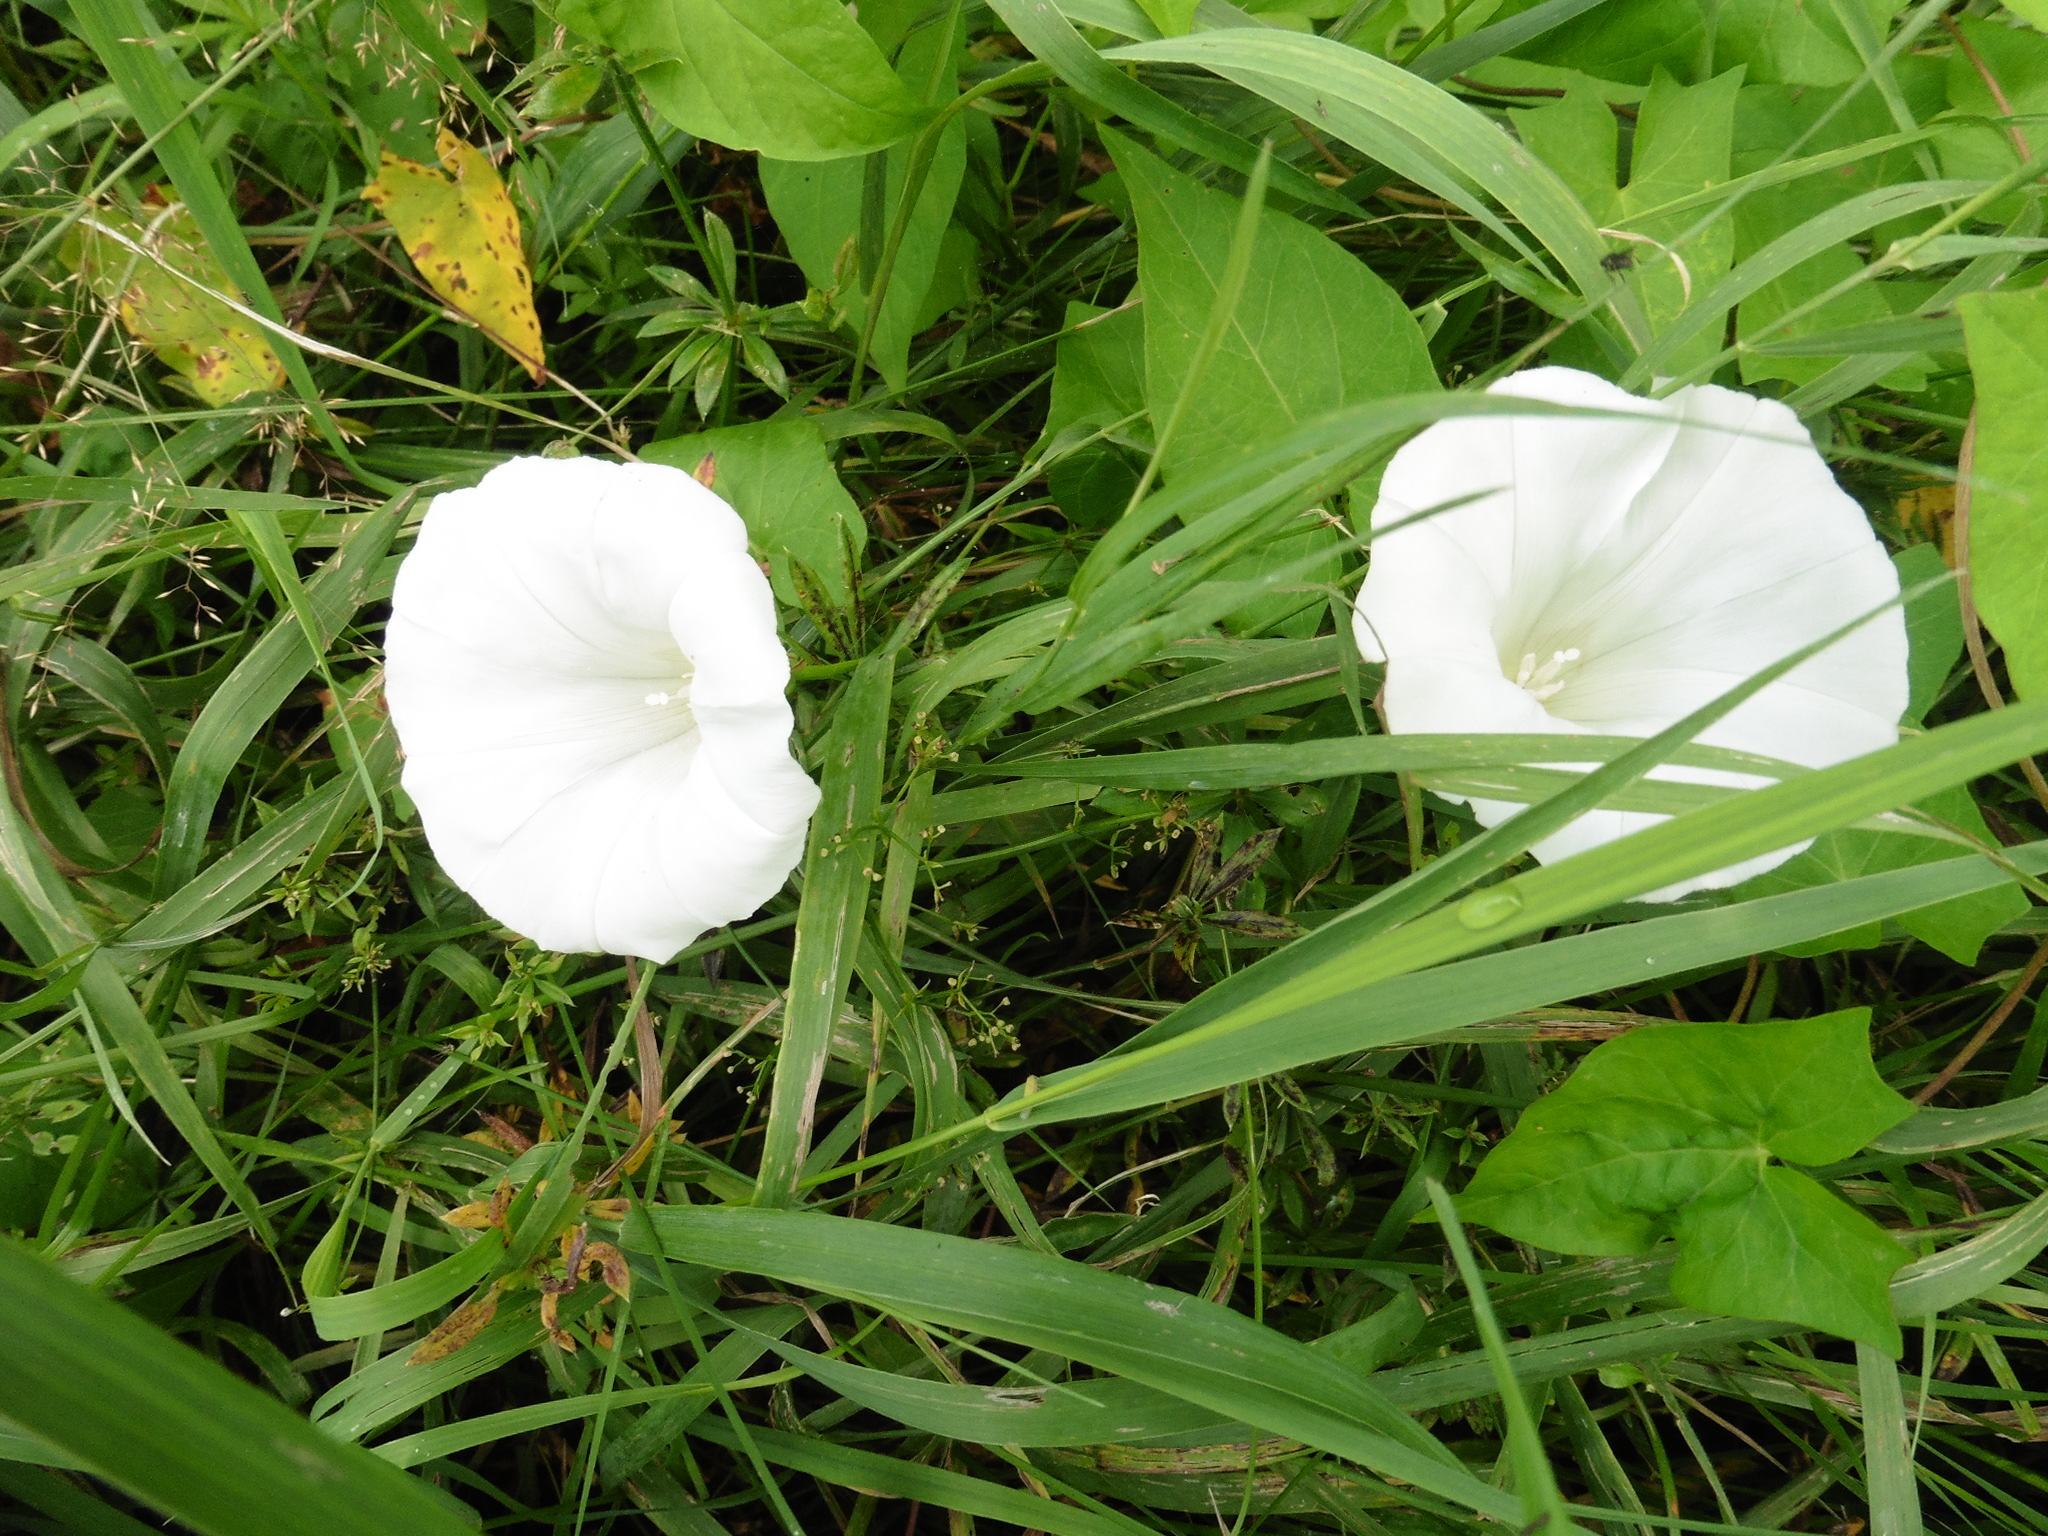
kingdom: Plantae
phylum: Tracheophyta
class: Magnoliopsida
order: Solanales
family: Convolvulaceae
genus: Calystegia
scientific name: Calystegia sepium
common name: Hedge bindweed
